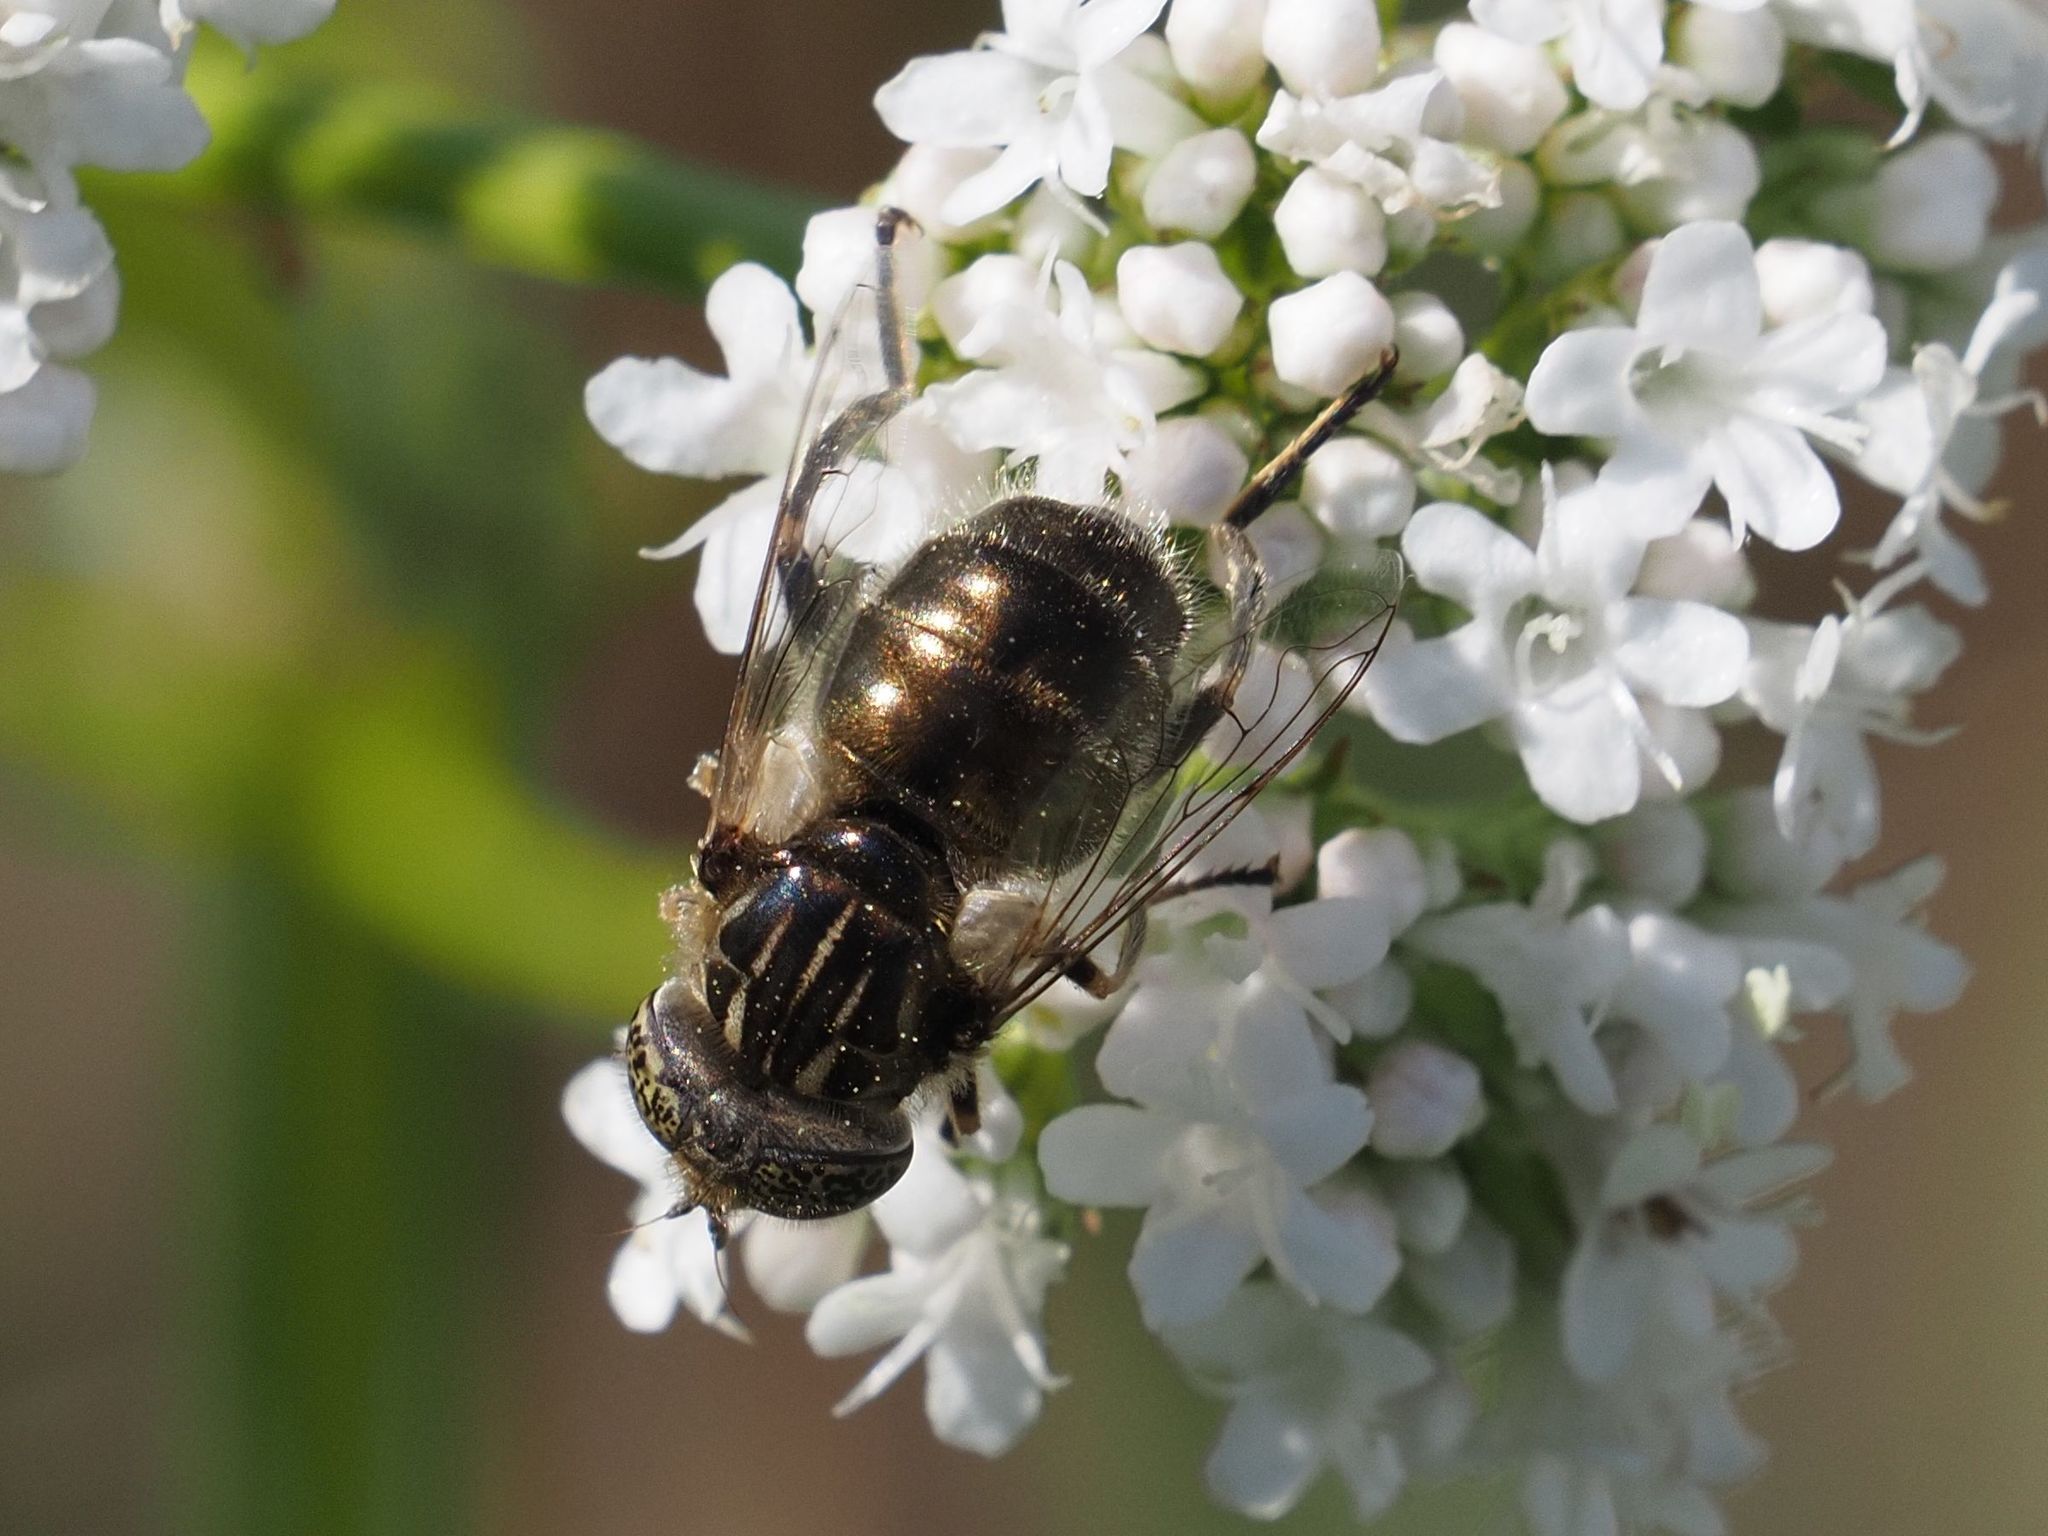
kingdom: Animalia
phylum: Arthropoda
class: Insecta
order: Diptera
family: Syrphidae
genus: Eristalinus
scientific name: Eristalinus aeneus
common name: Syrphid fly
